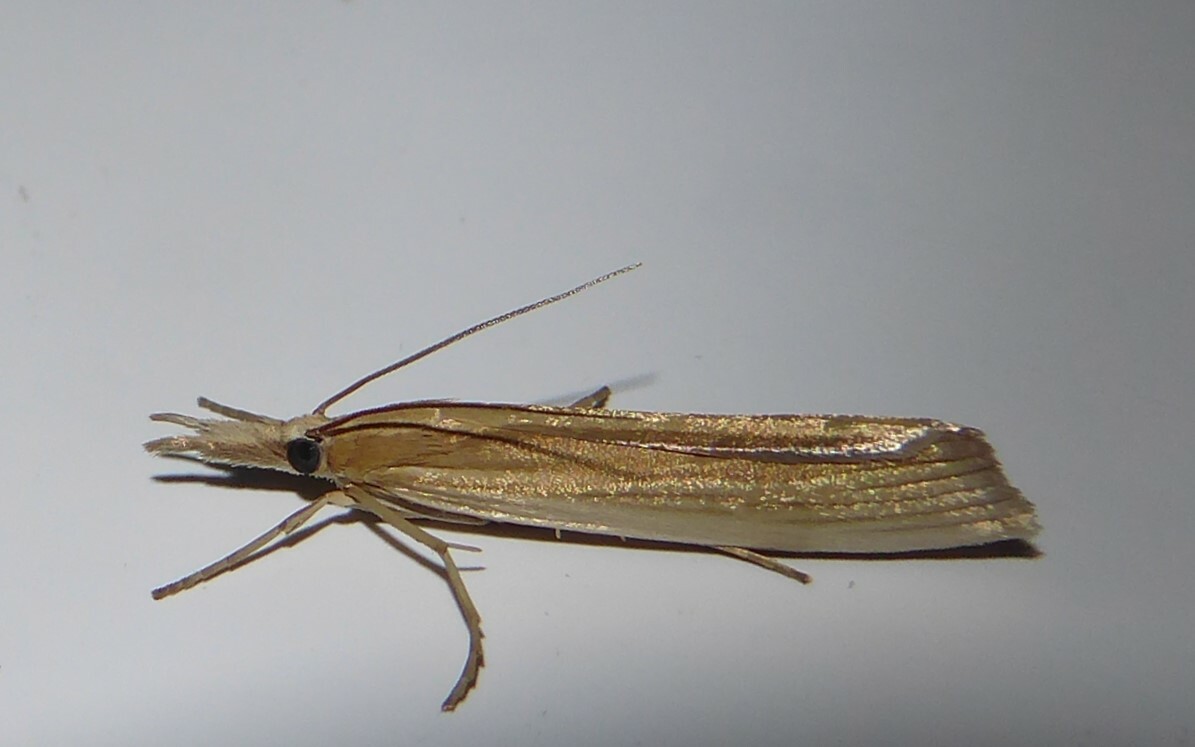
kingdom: Animalia
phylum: Arthropoda
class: Insecta
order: Lepidoptera
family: Crambidae
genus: Orocrambus
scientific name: Orocrambus angustipennis
